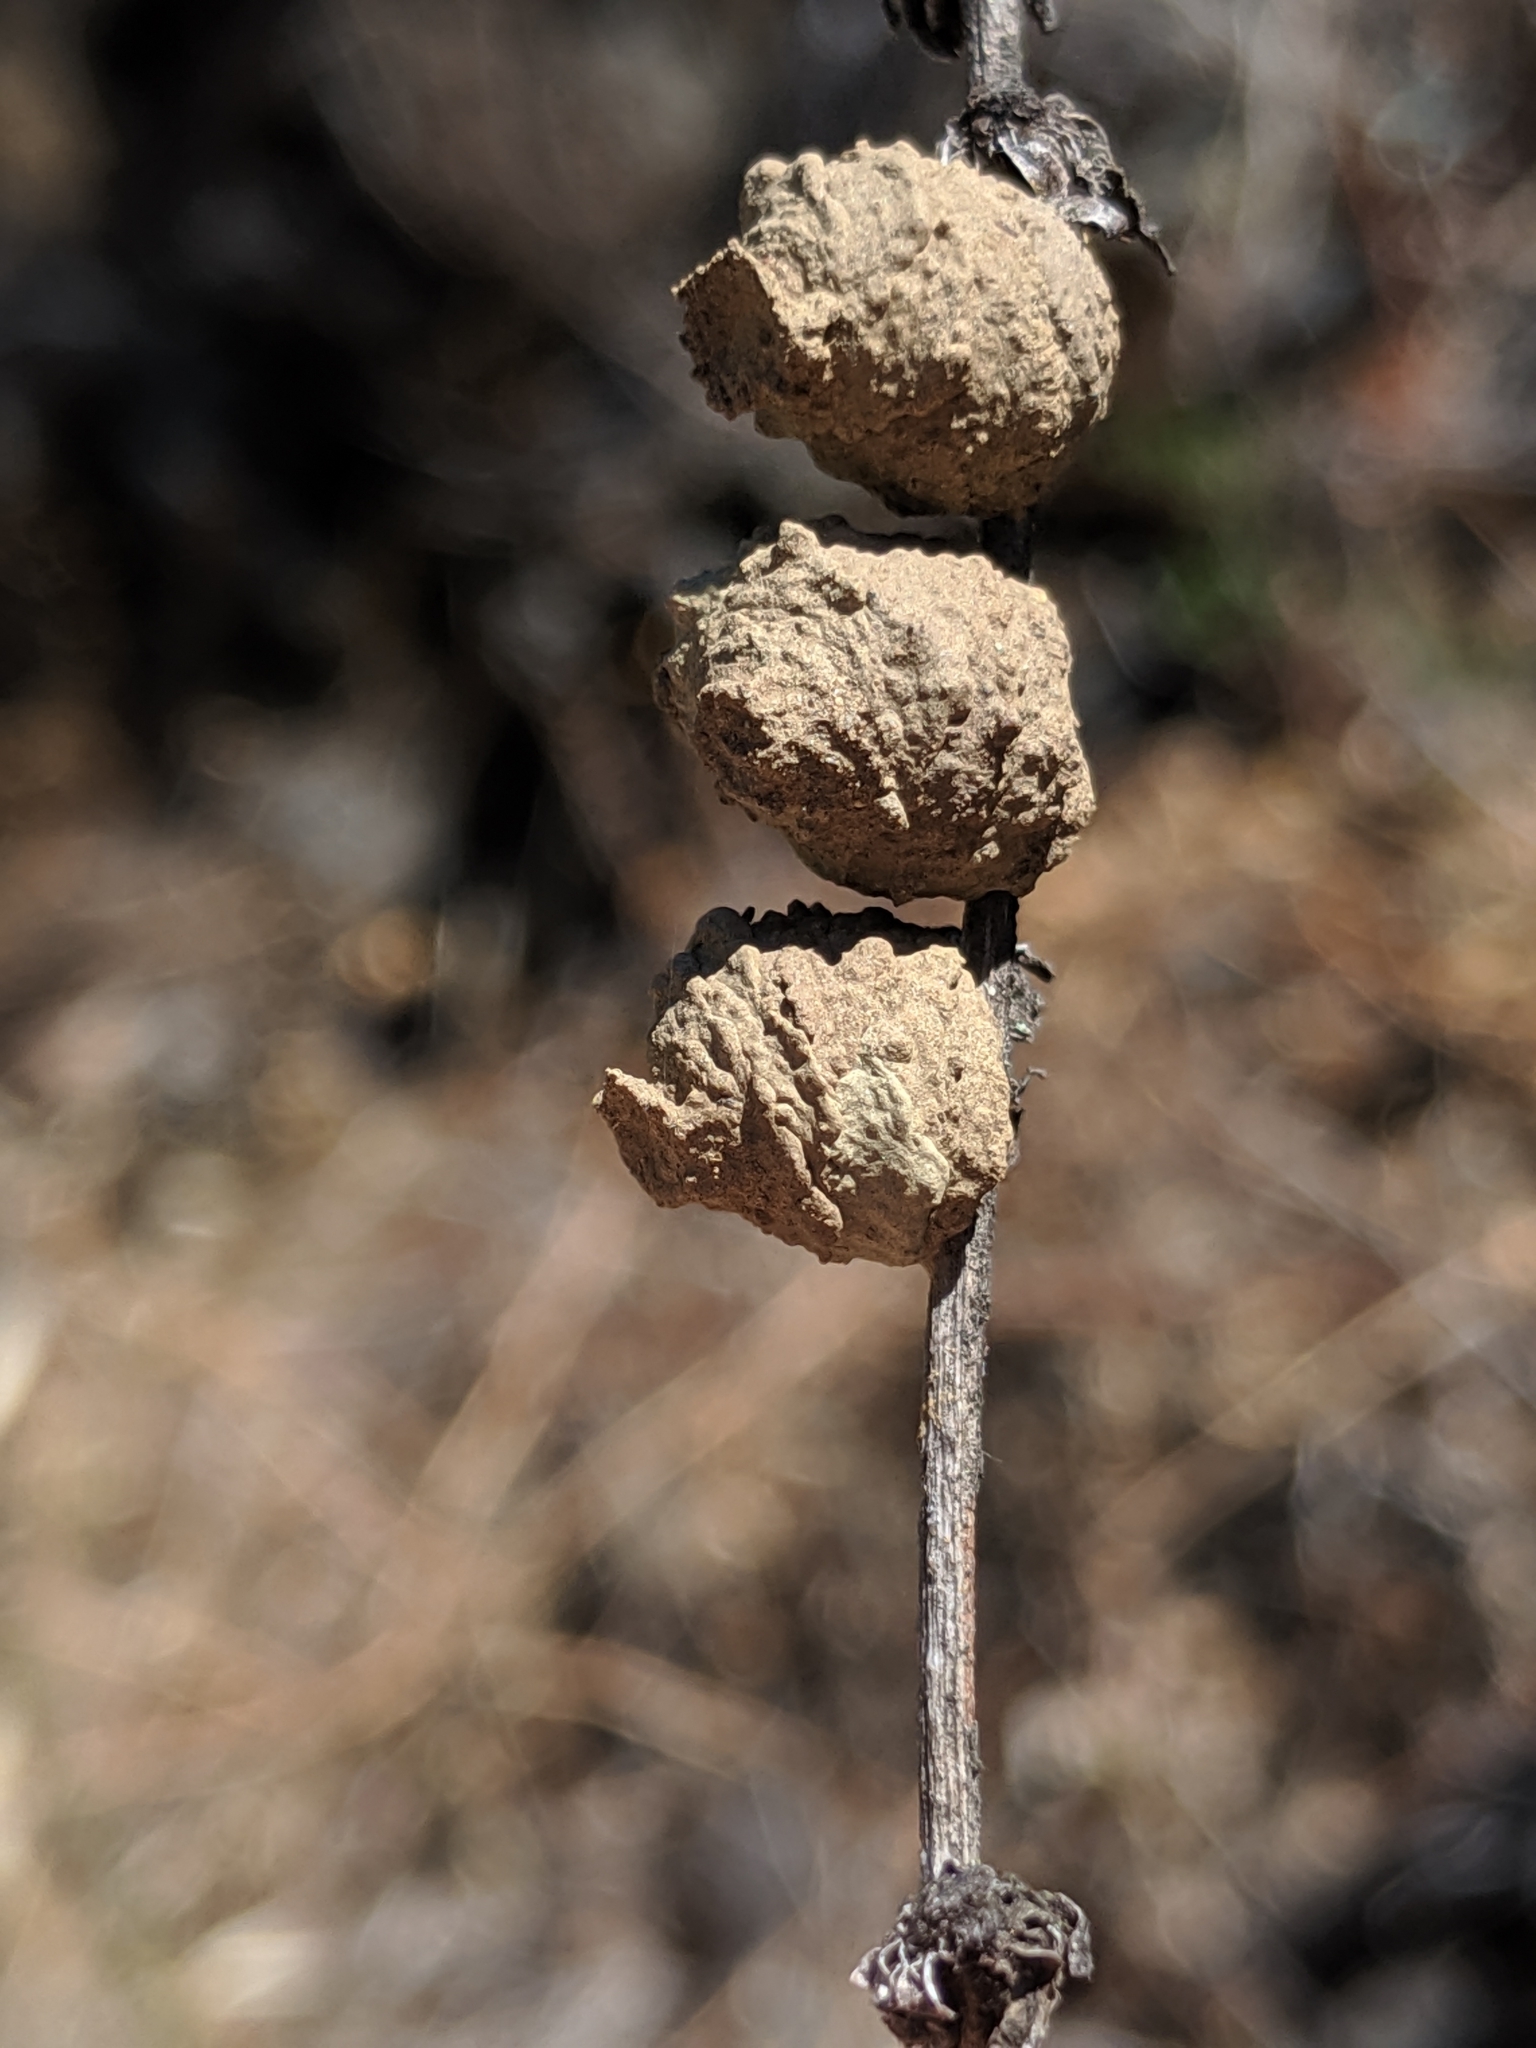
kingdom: Animalia
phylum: Arthropoda
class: Insecta
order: Hymenoptera
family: Vespidae
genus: Eumenes
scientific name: Eumenes
